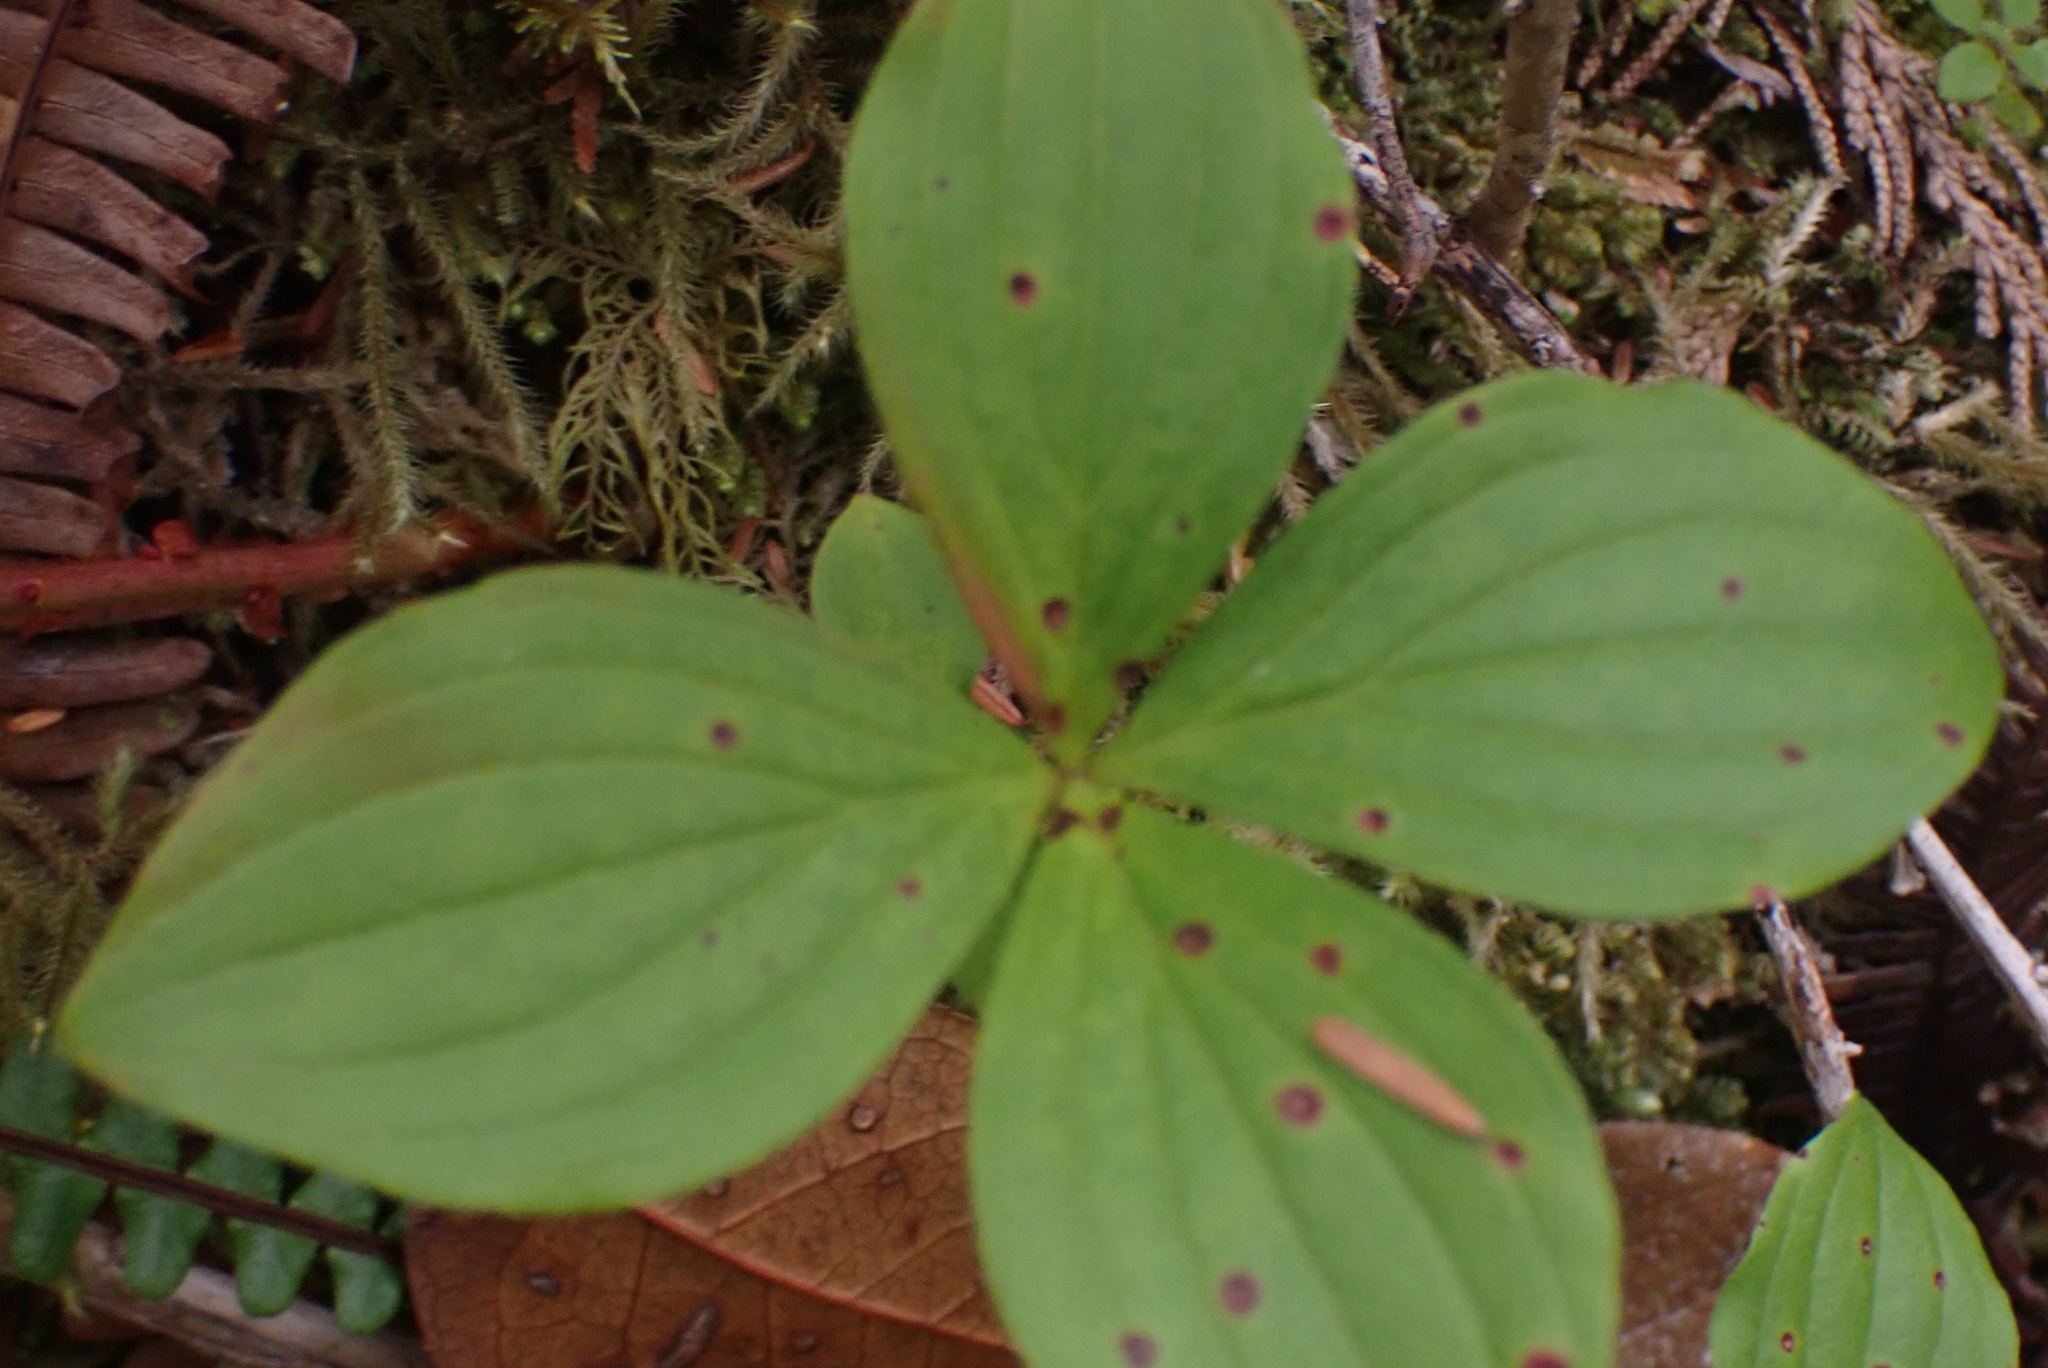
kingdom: Plantae
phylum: Tracheophyta
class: Magnoliopsida
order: Cornales
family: Cornaceae
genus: Cornus
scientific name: Cornus unalaschkensis
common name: Alaska bunchberry
